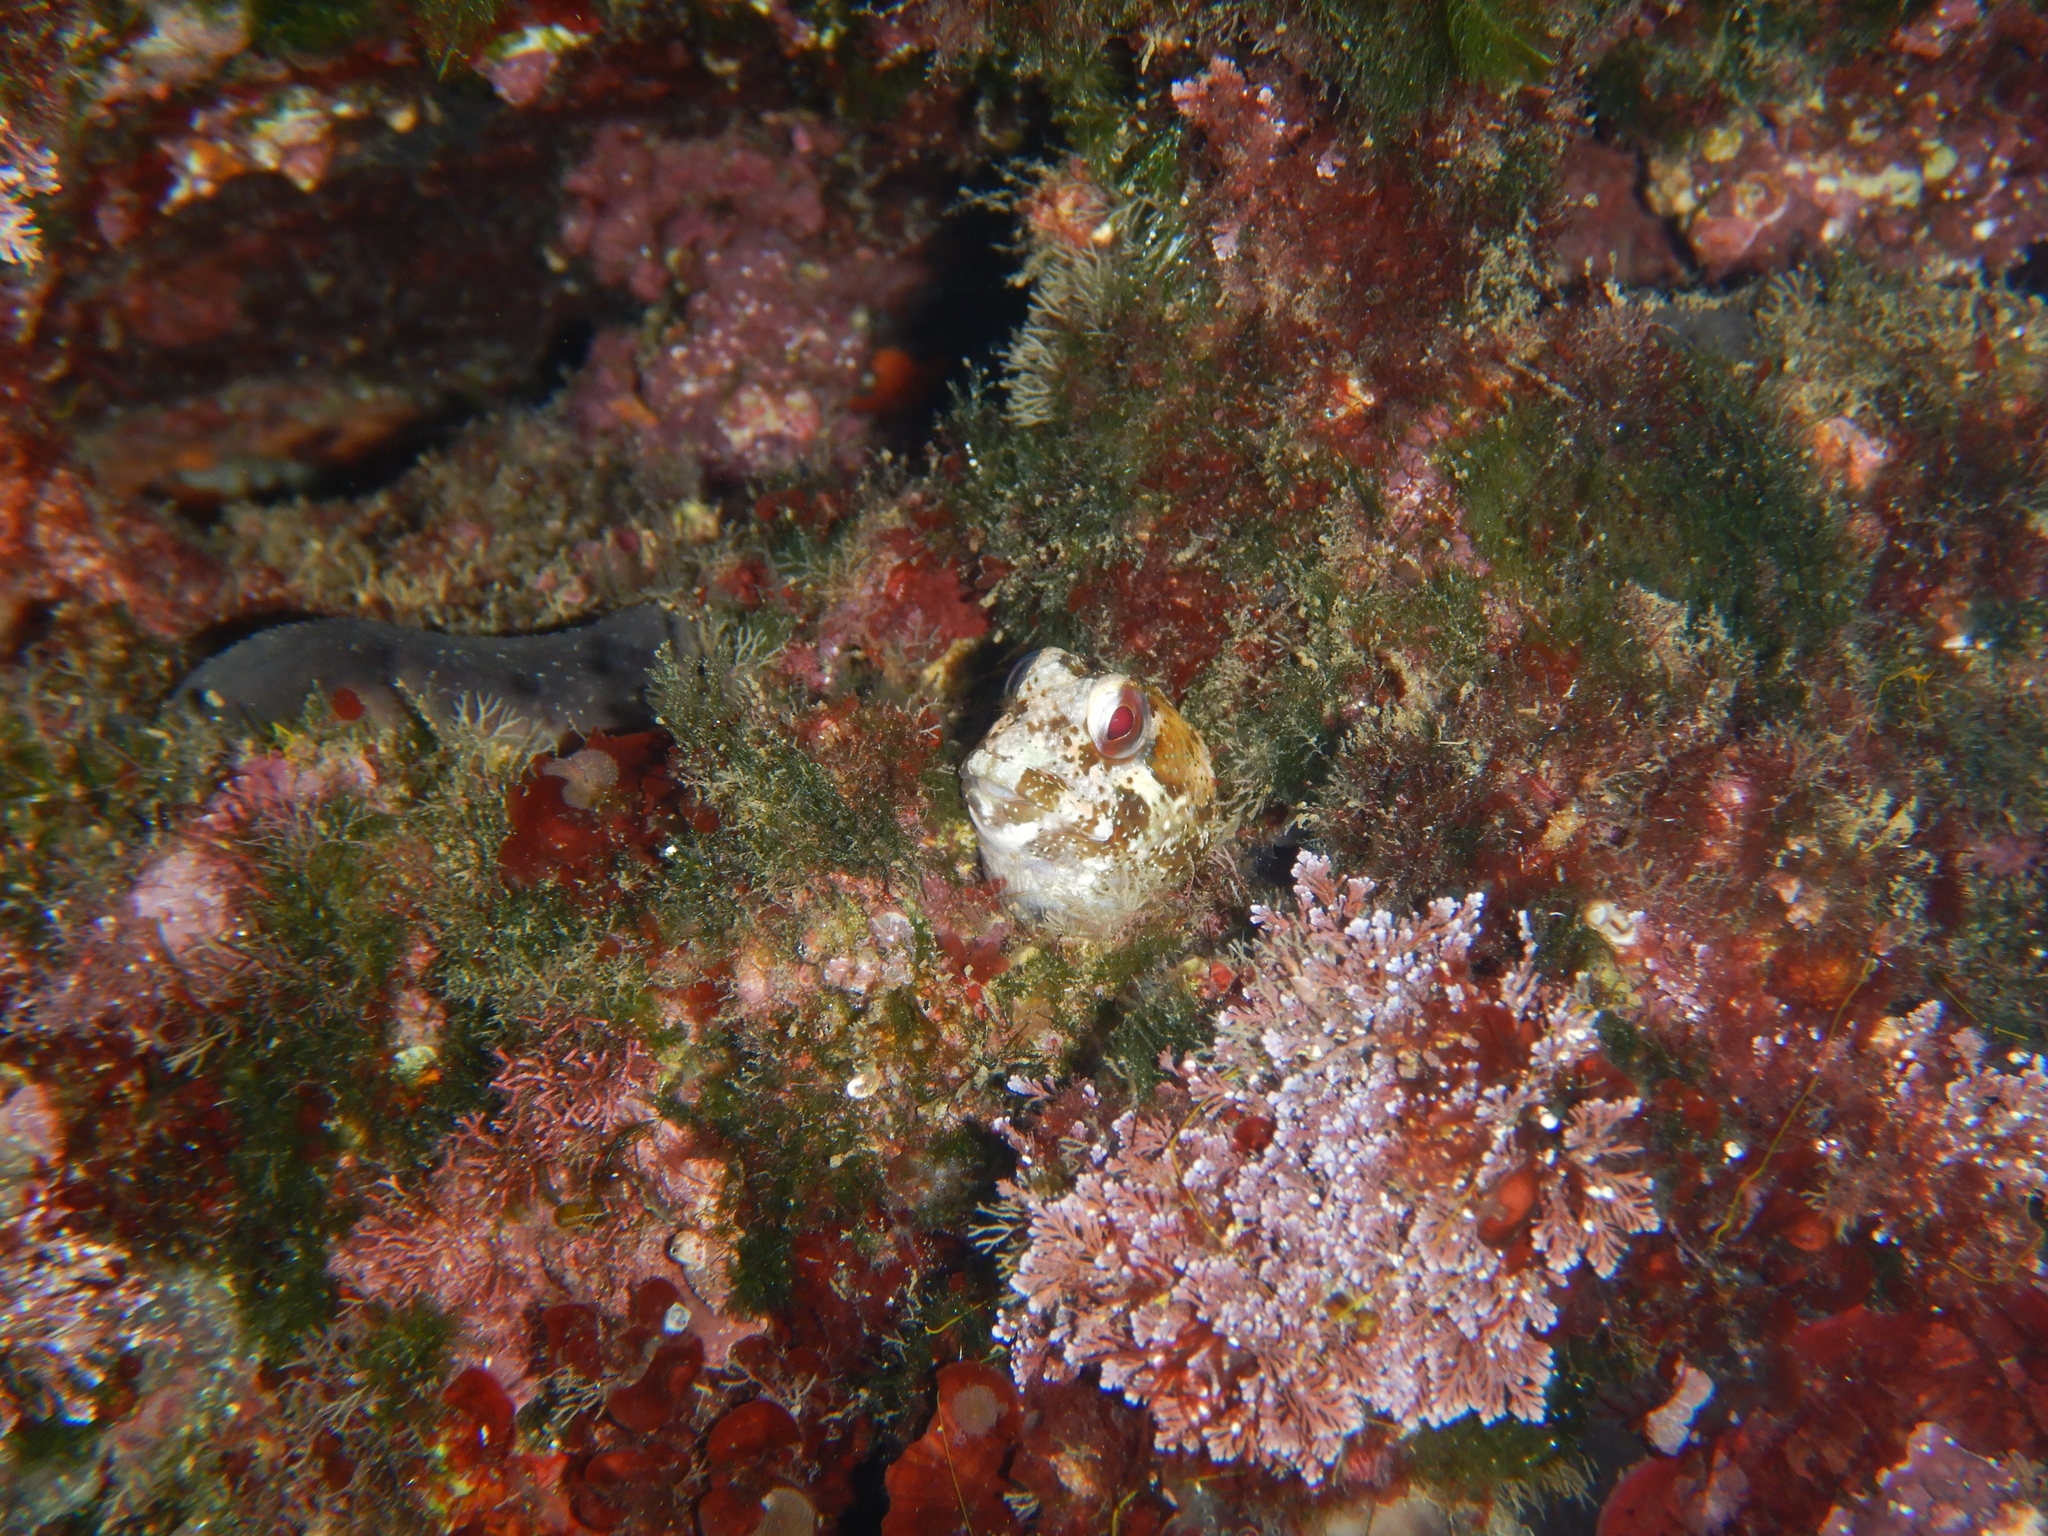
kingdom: Animalia
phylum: Chordata
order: Perciformes
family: Blenniidae
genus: Lipophrys
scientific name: Lipophrys trigloides
